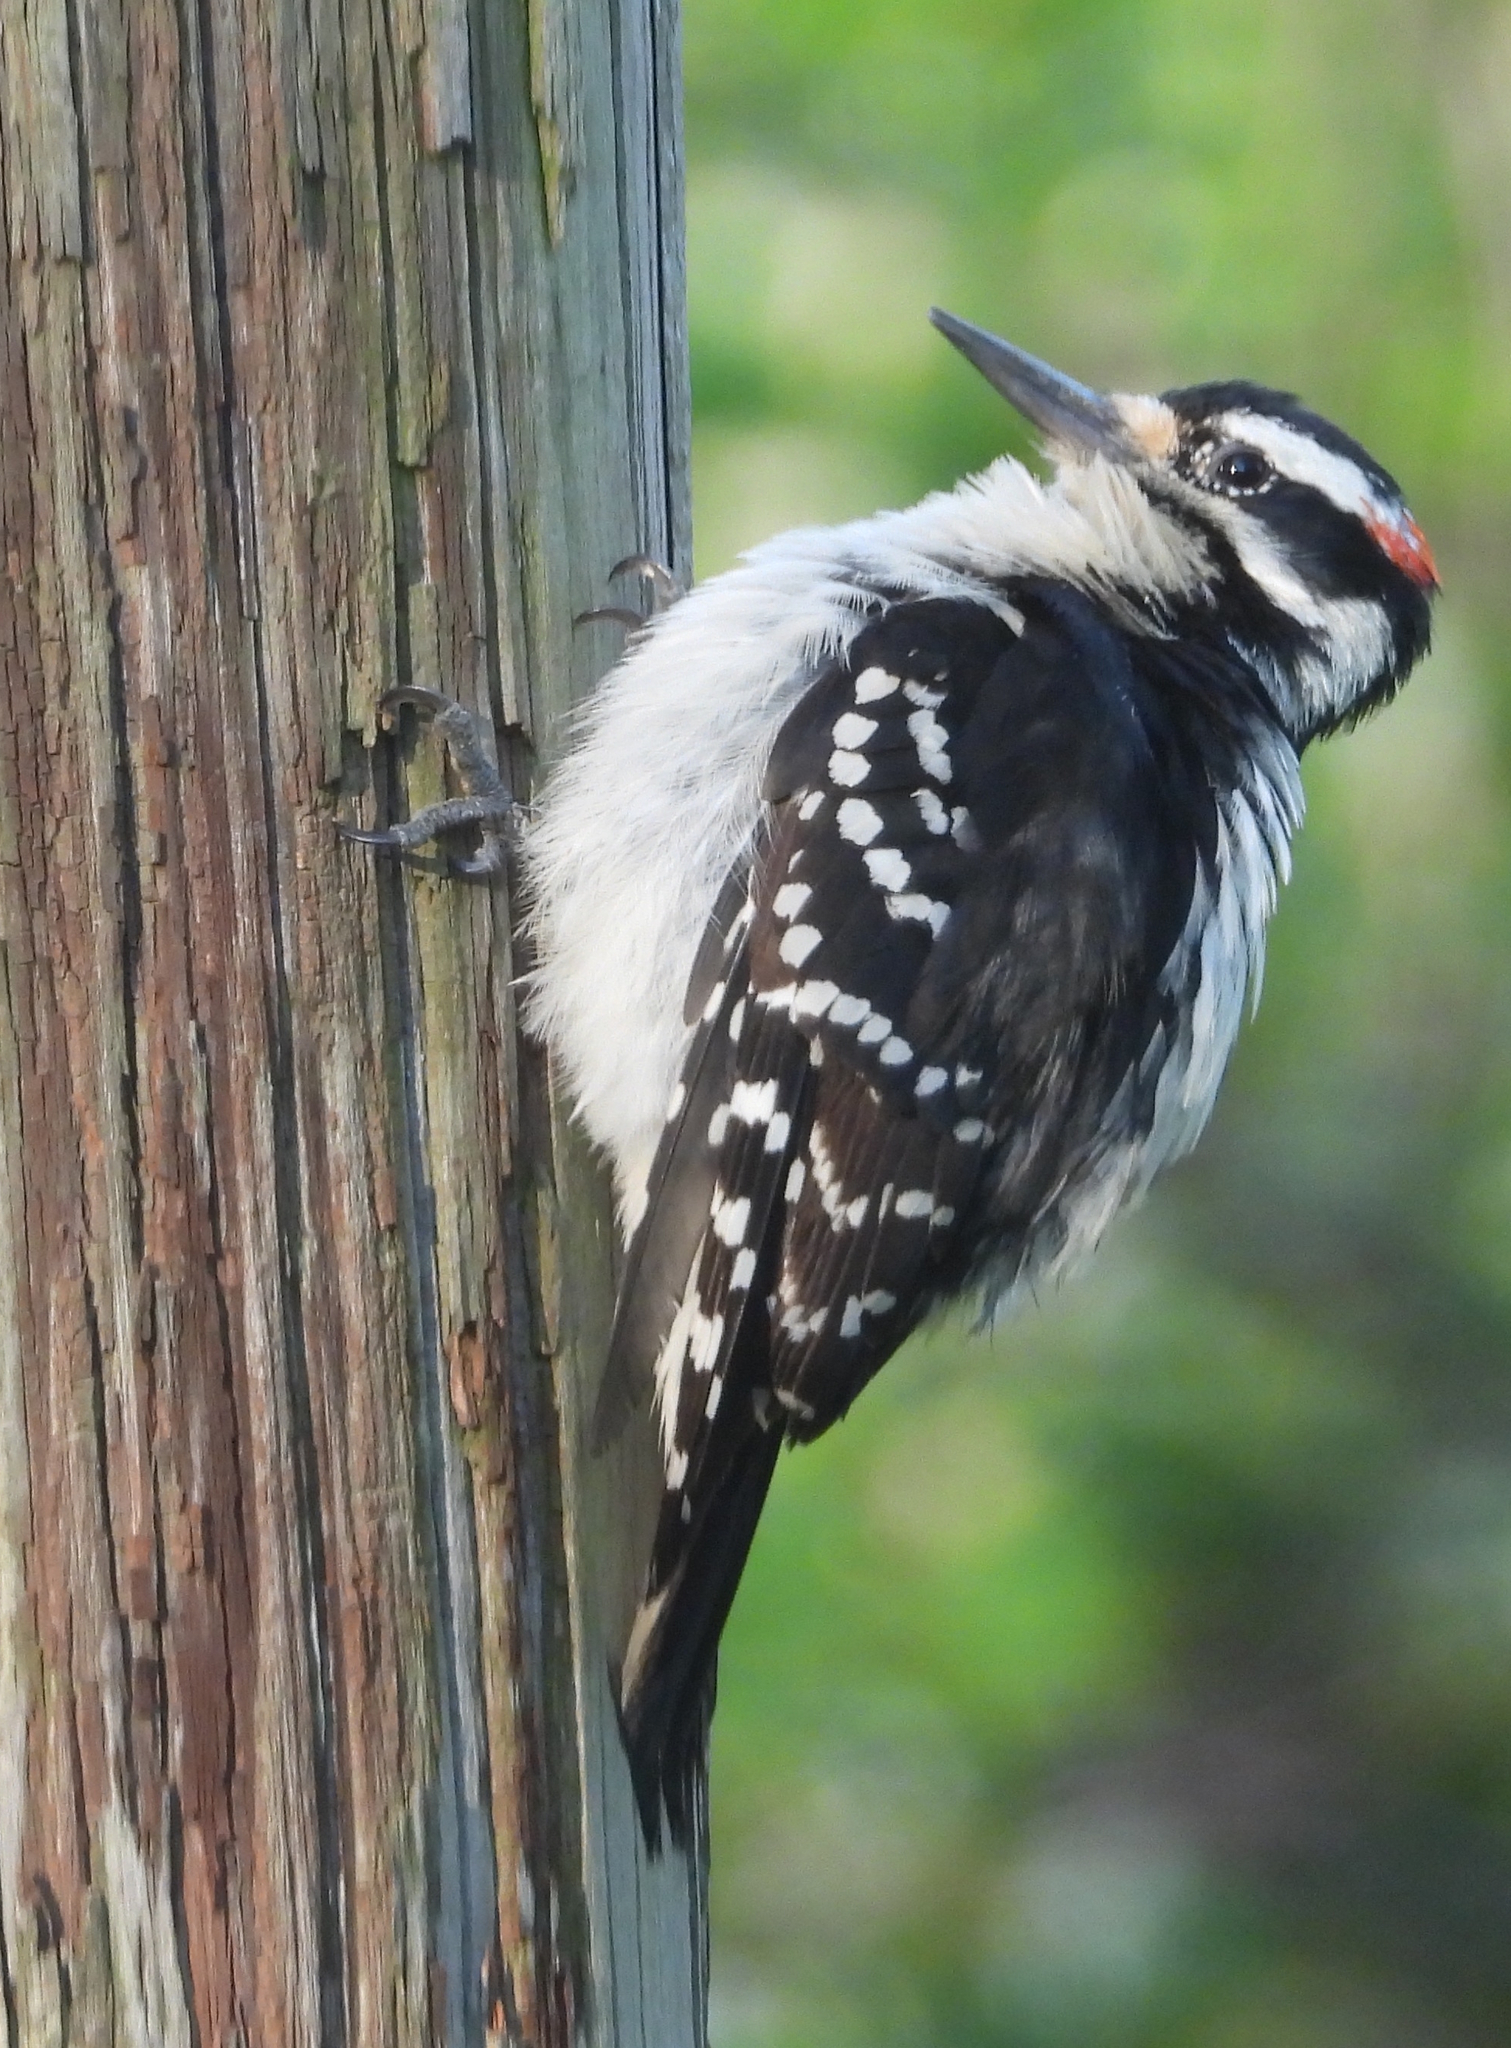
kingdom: Animalia
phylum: Chordata
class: Aves
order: Piciformes
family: Picidae
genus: Leuconotopicus
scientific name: Leuconotopicus villosus
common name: Hairy woodpecker
